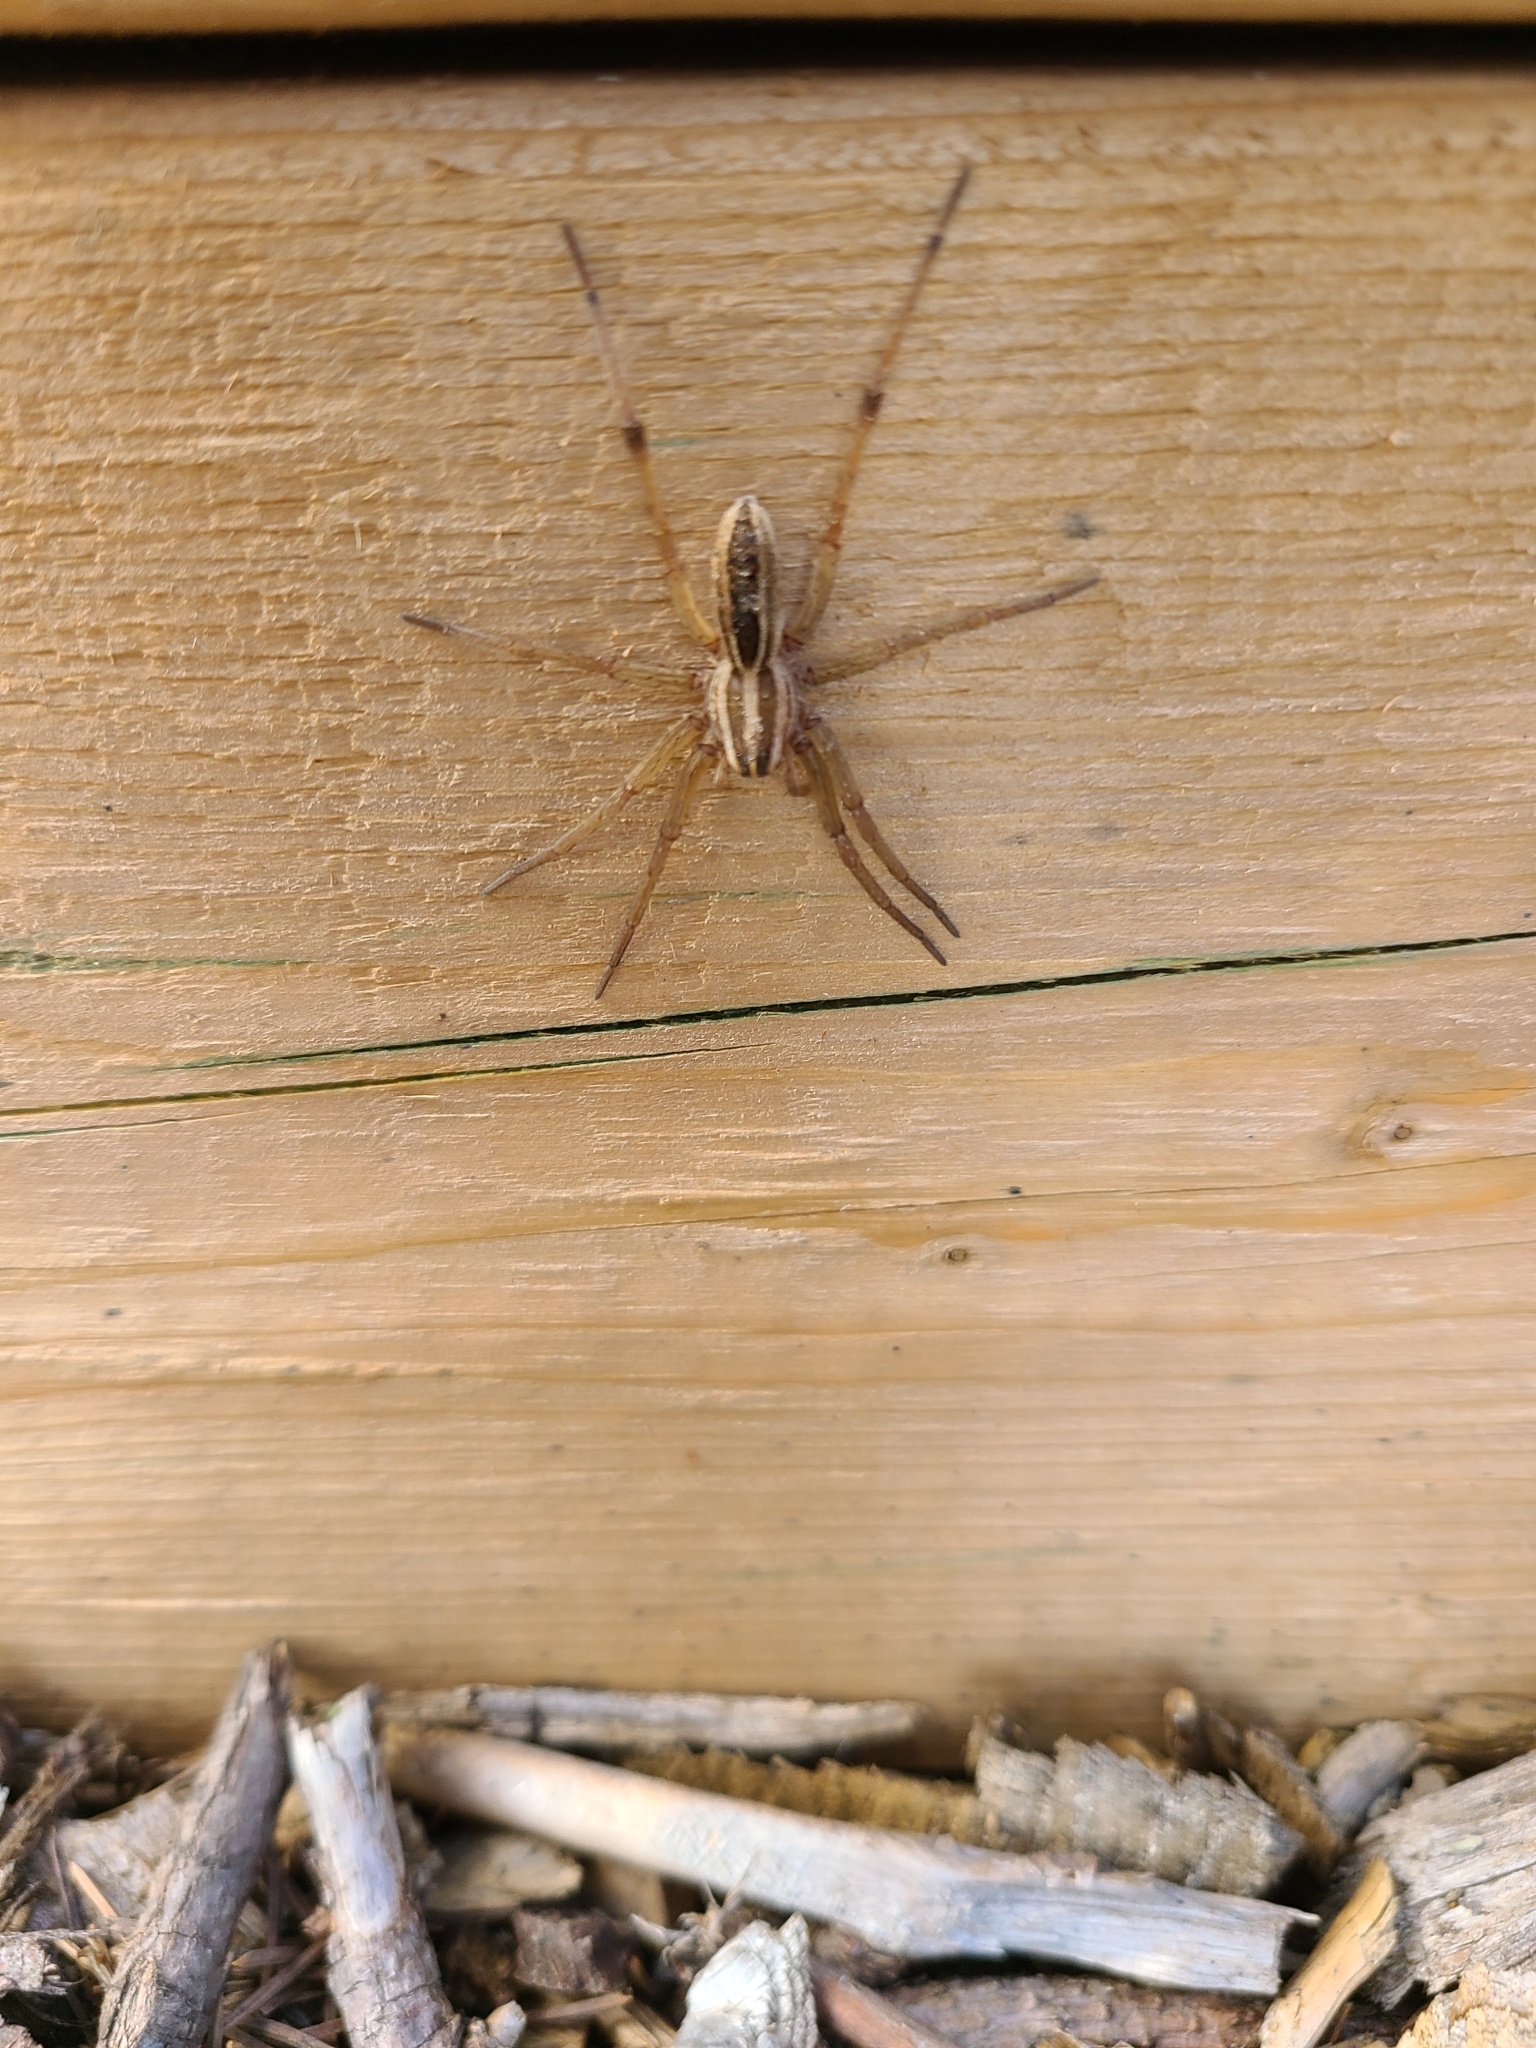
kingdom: Animalia
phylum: Arthropoda
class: Arachnida
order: Araneae
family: Lycosidae
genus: Rabidosa
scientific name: Rabidosa rabida
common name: Rabid wolf spider
